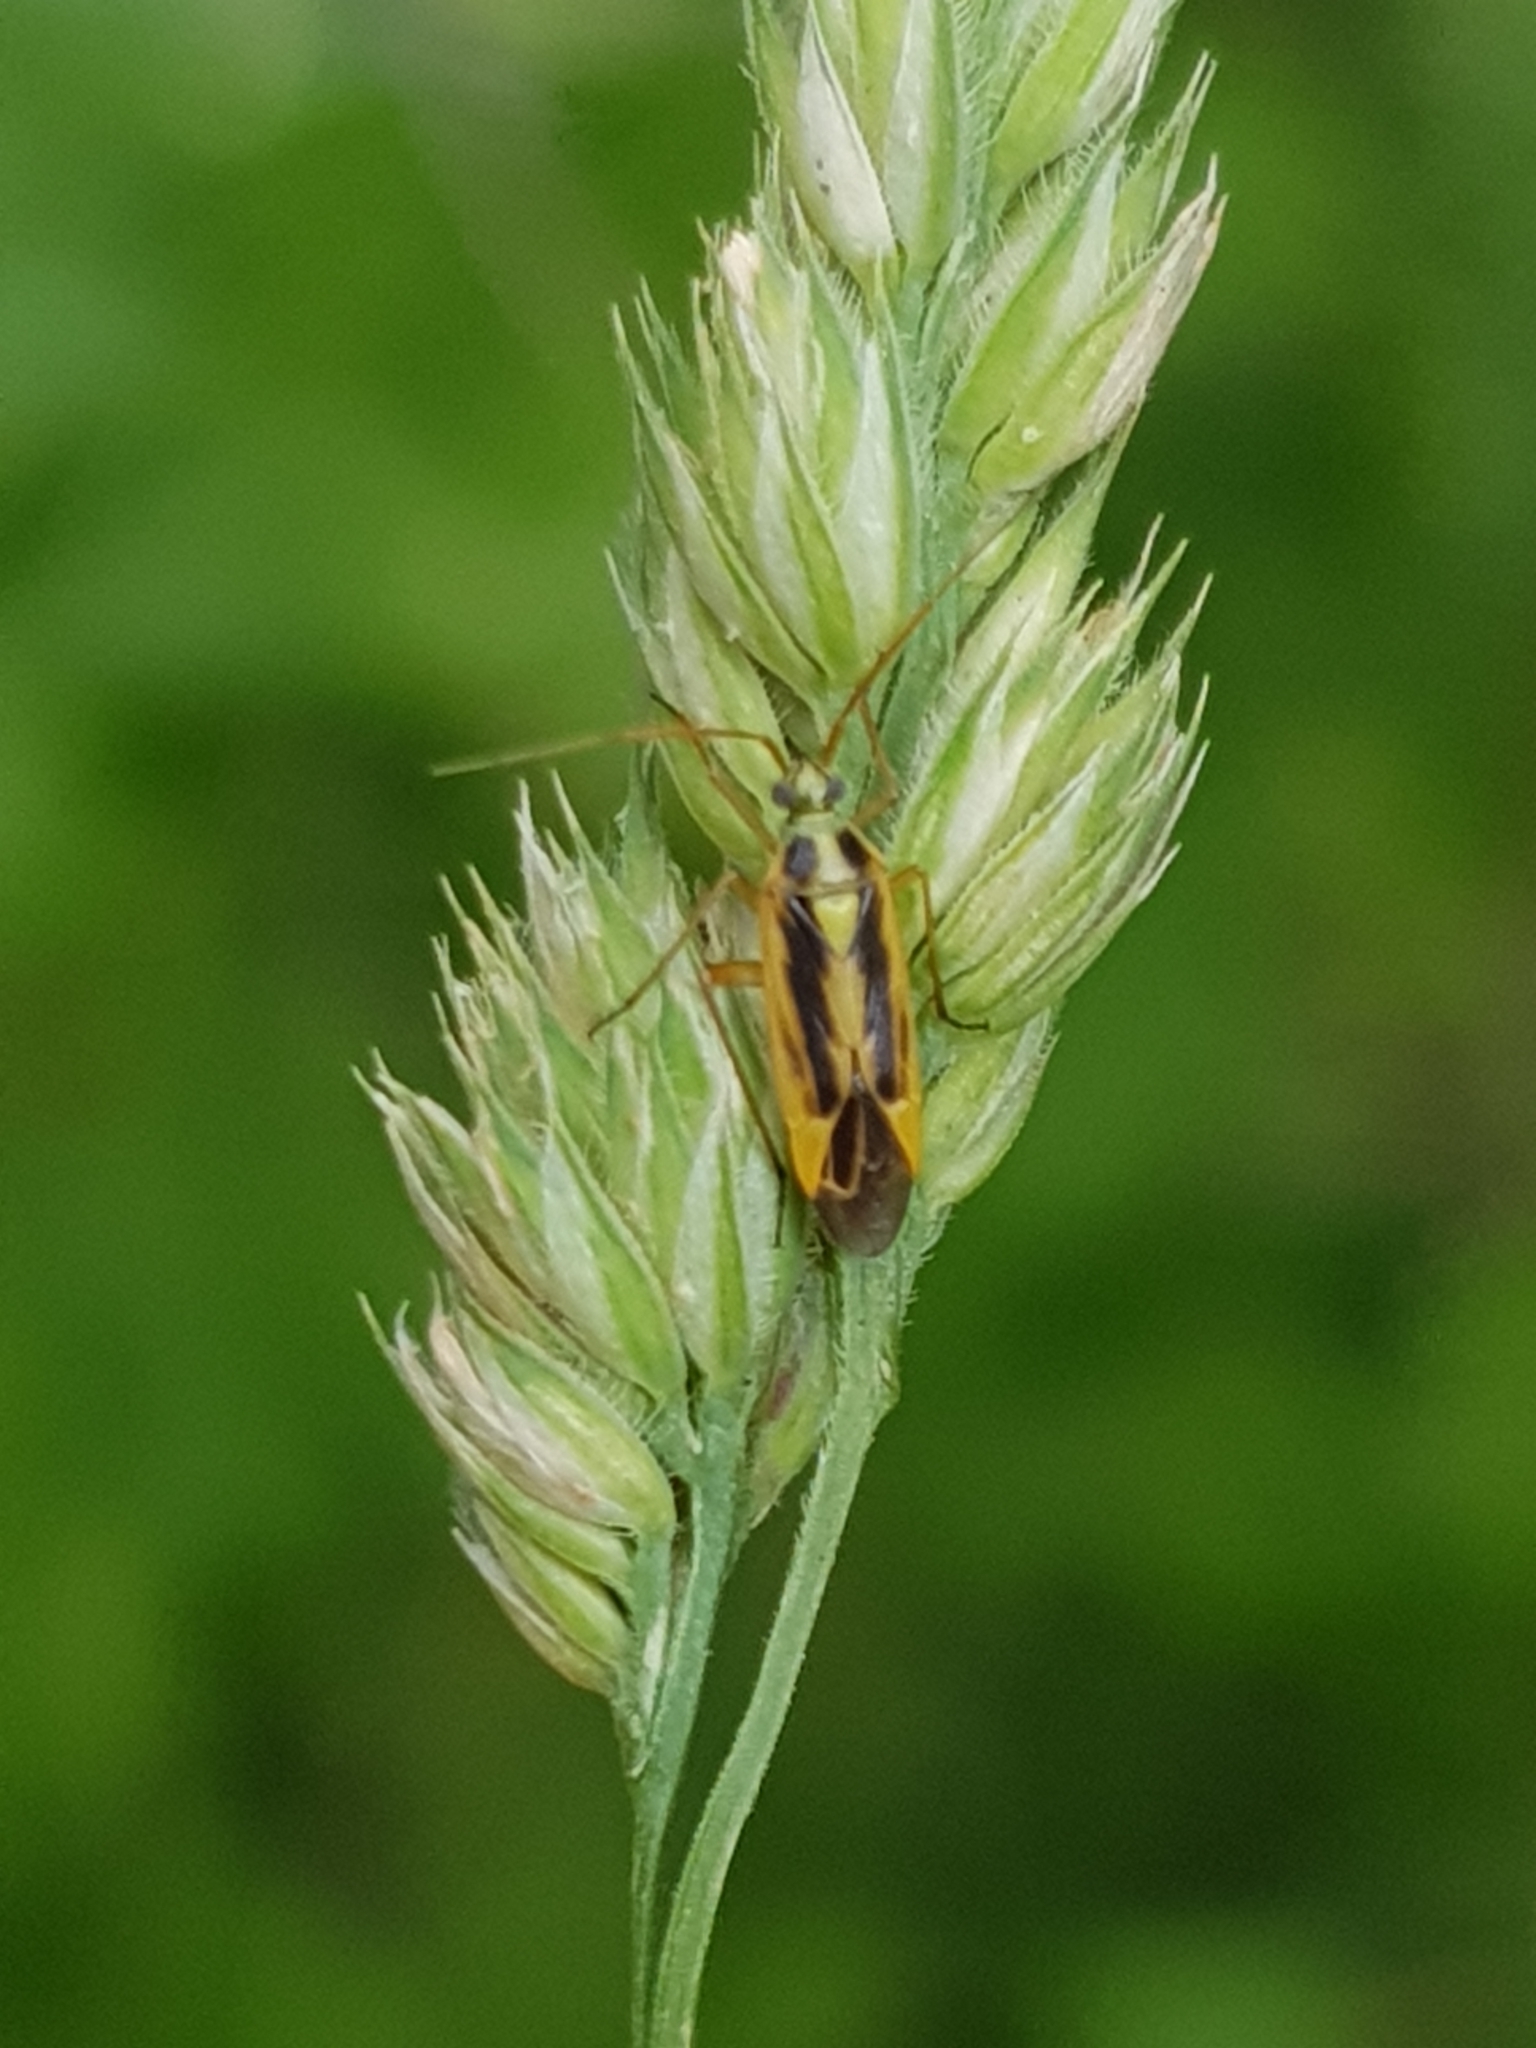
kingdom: Animalia
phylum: Arthropoda
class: Insecta
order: Hemiptera
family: Miridae
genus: Stenotus
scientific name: Stenotus binotatus
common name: Plant bug
